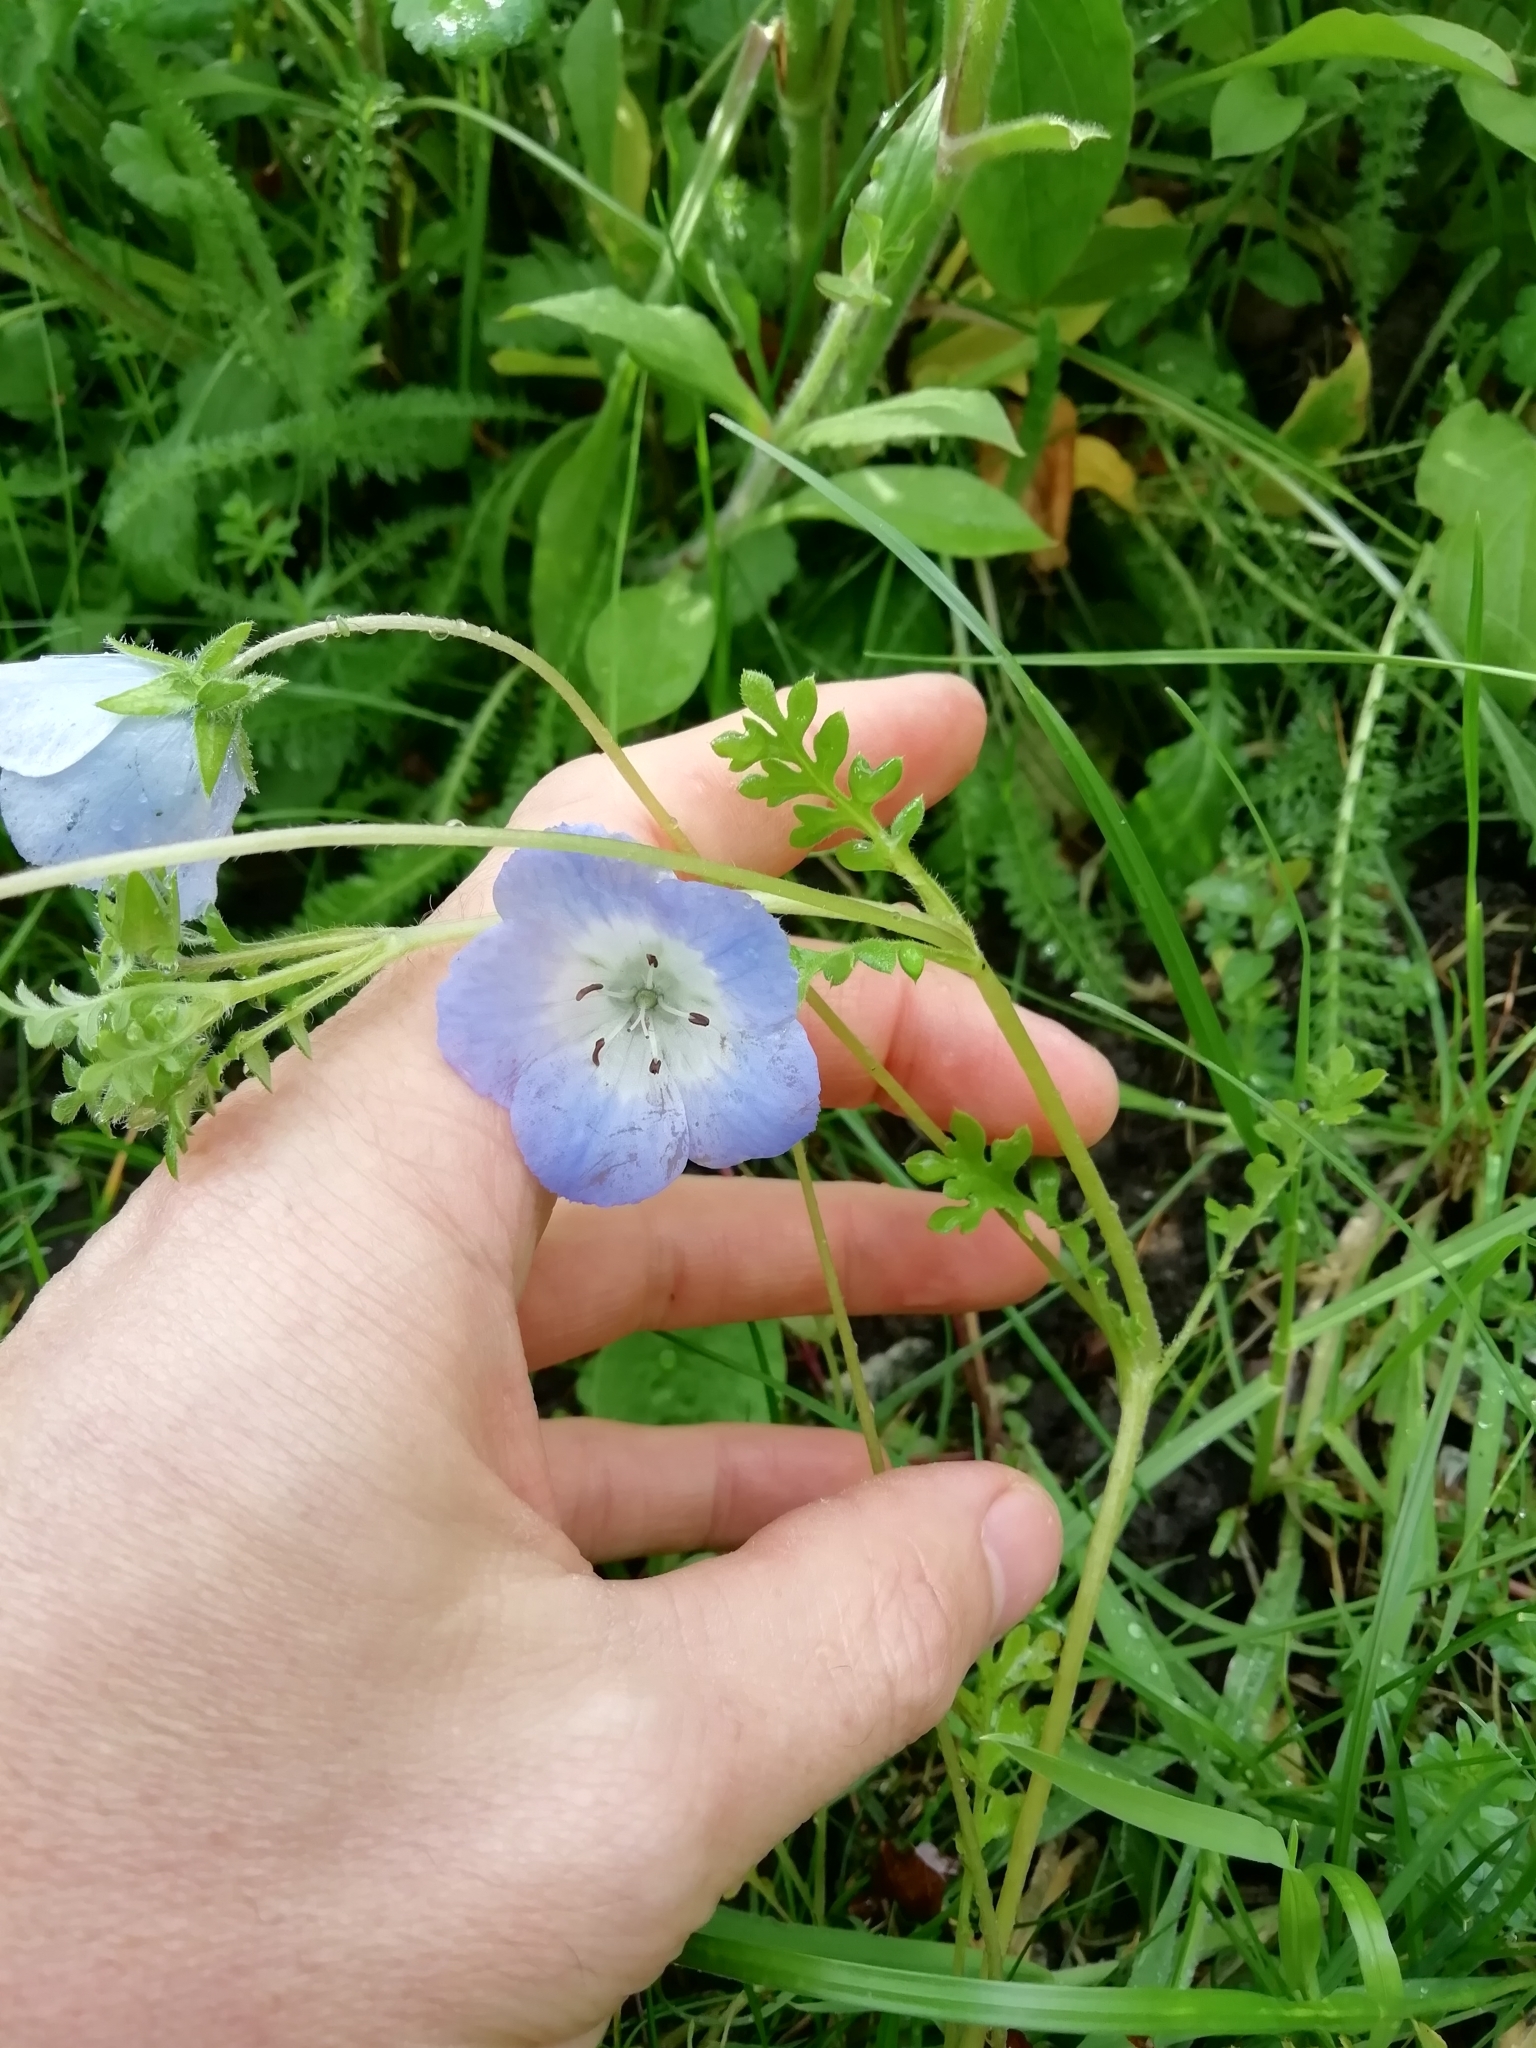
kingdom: Plantae
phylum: Tracheophyta
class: Magnoliopsida
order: Boraginales
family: Hydrophyllaceae
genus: Nemophila
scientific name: Nemophila menziesii
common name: Baby's-blue-eyes
